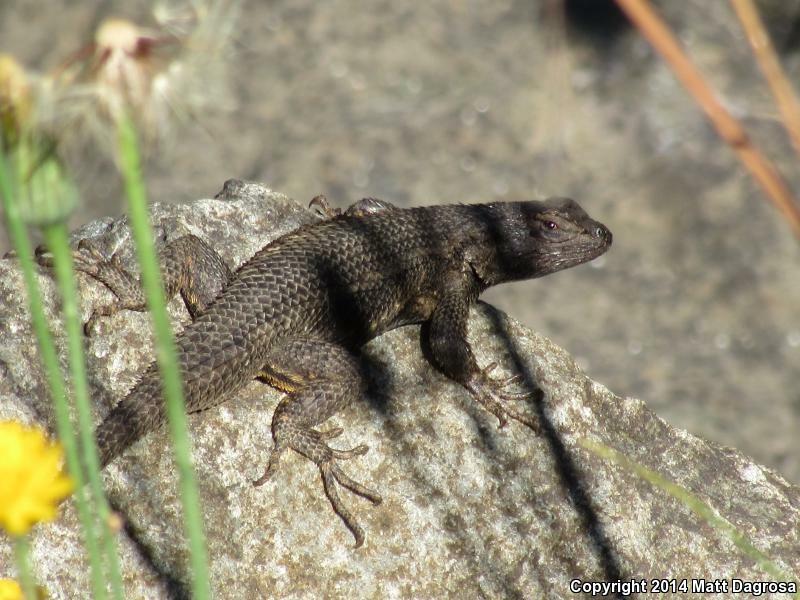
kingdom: Animalia
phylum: Chordata
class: Squamata
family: Phrynosomatidae
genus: Sceloporus
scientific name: Sceloporus occidentalis
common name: Western fence lizard
